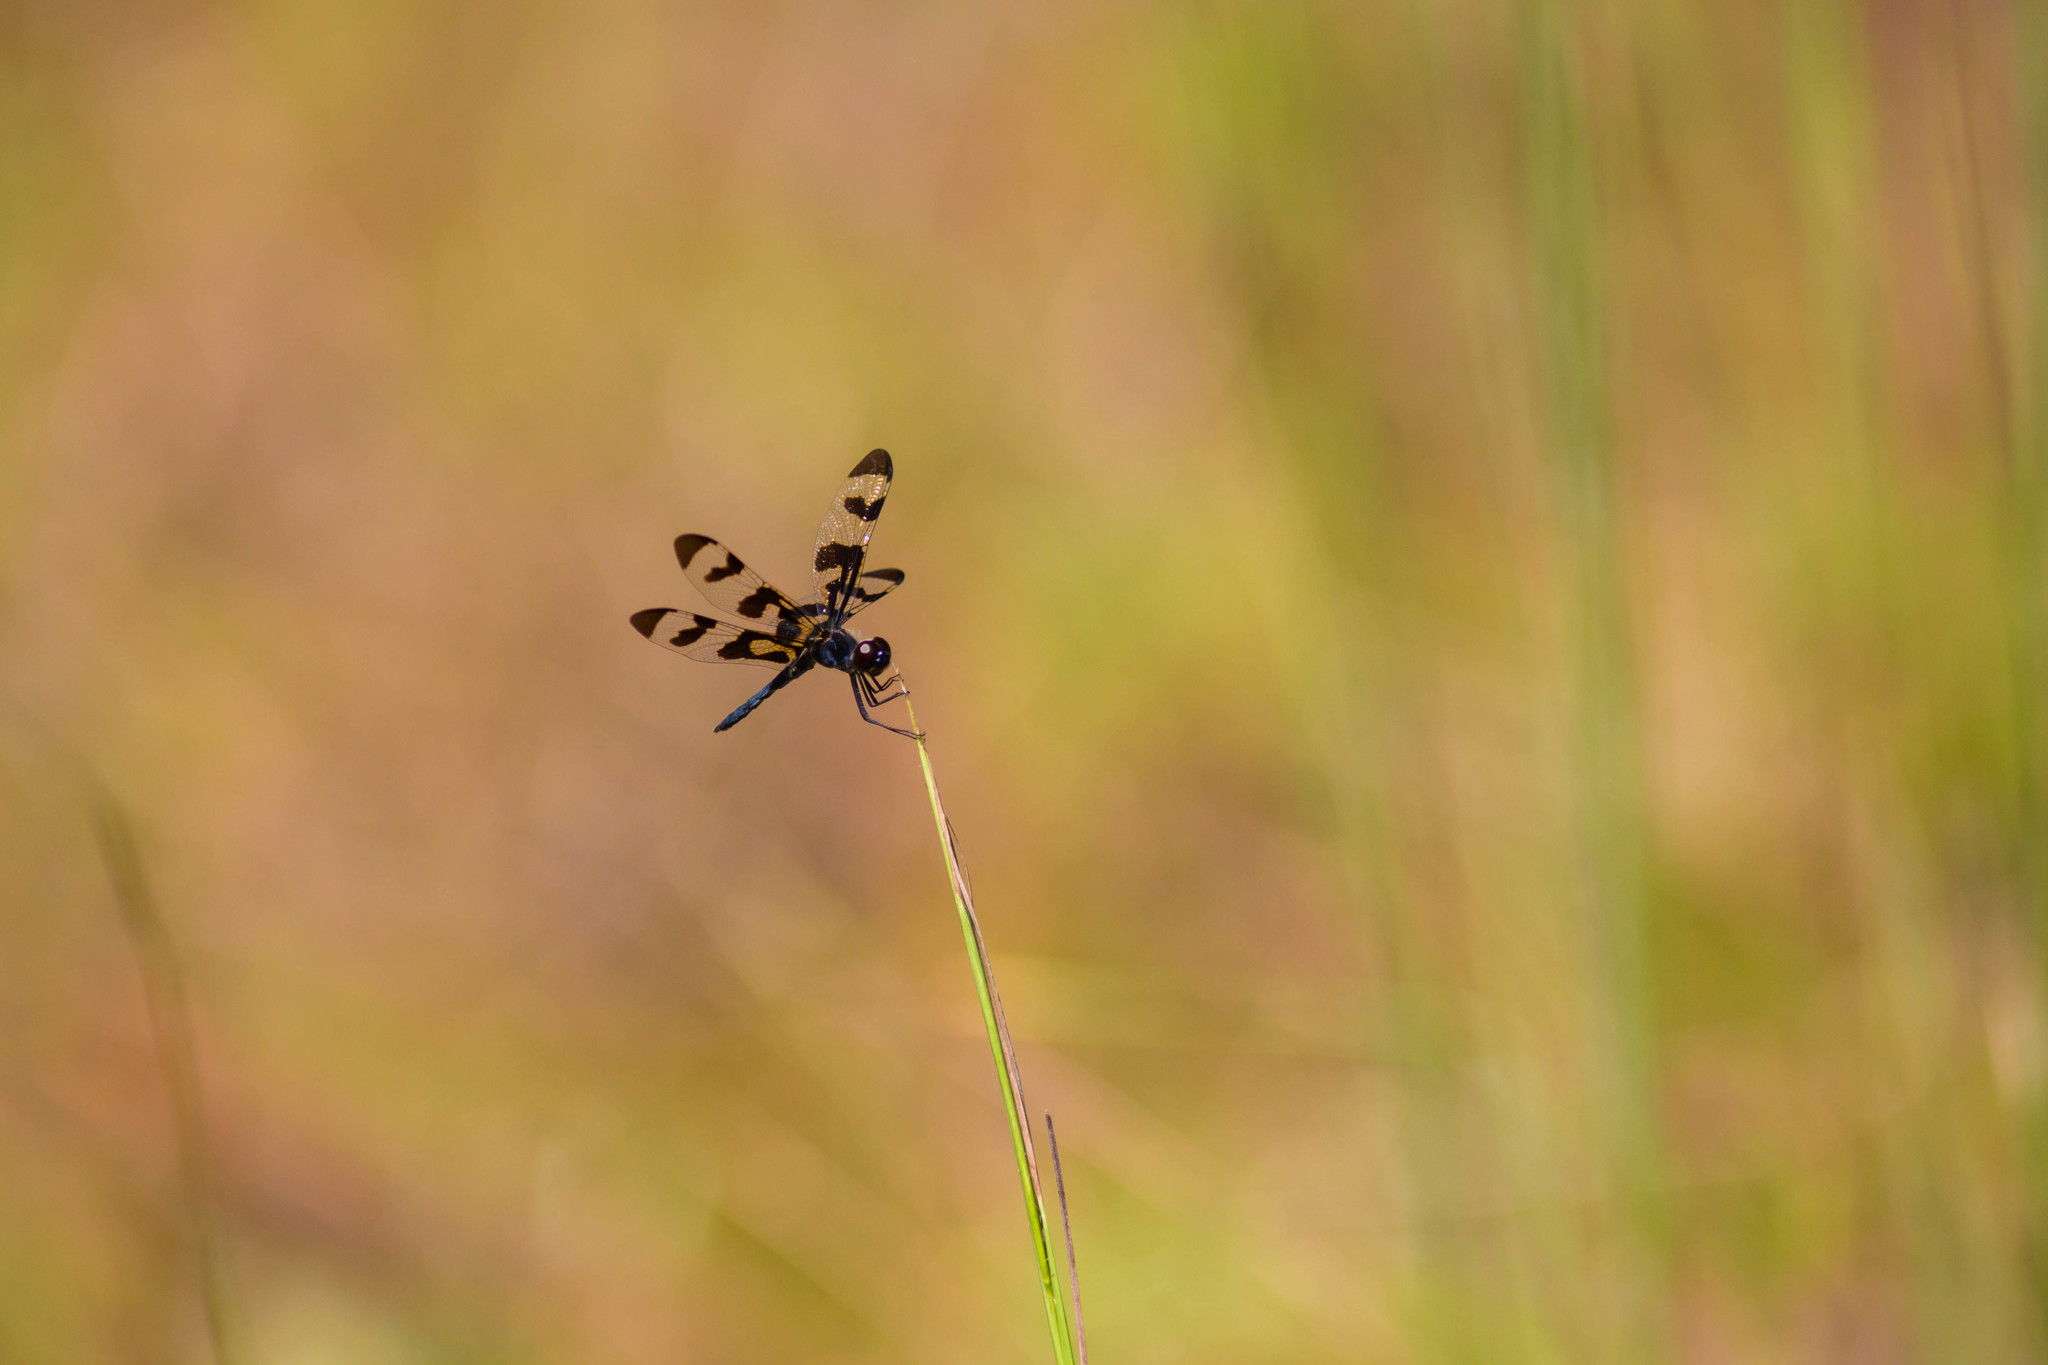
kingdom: Animalia
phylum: Arthropoda
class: Insecta
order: Odonata
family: Libellulidae
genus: Celithemis
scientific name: Celithemis fasciata
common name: Banded pennant
